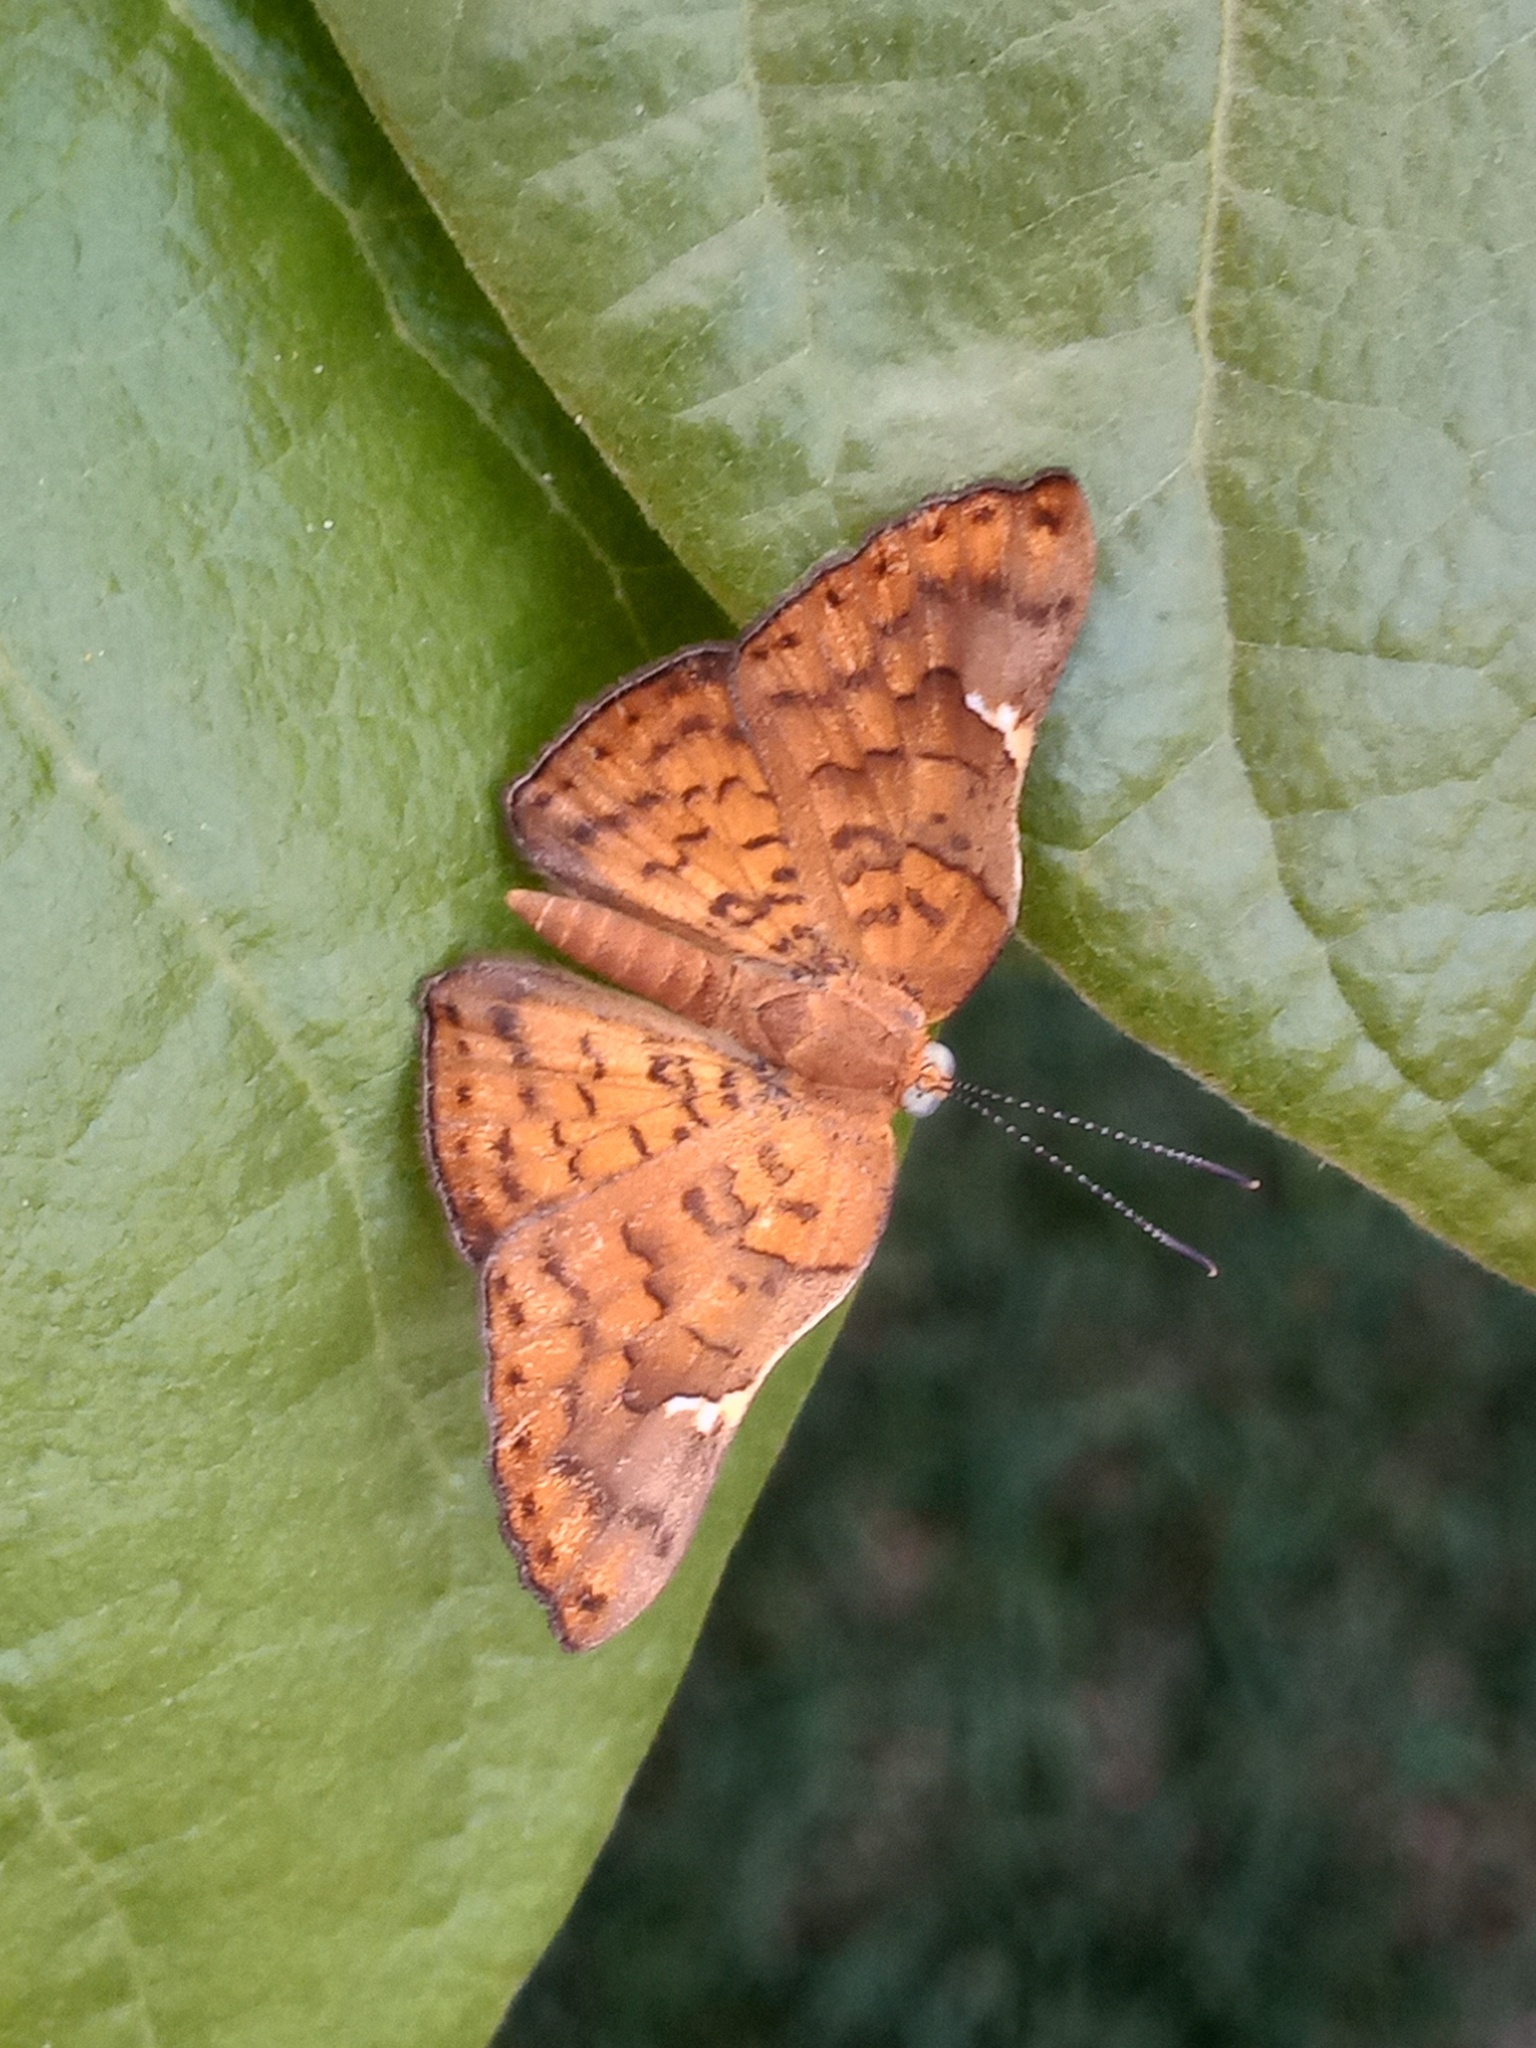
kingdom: Animalia
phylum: Arthropoda
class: Insecta
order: Lepidoptera
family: Riodinidae
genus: Curvie
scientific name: Curvie emesia
